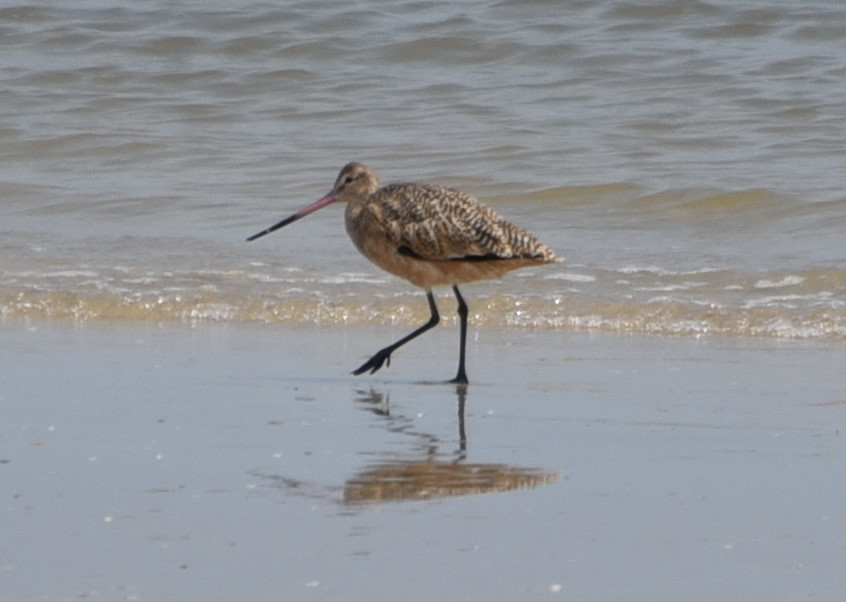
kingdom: Animalia
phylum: Chordata
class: Aves
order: Charadriiformes
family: Scolopacidae
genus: Limosa
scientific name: Limosa fedoa
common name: Marbled godwit
